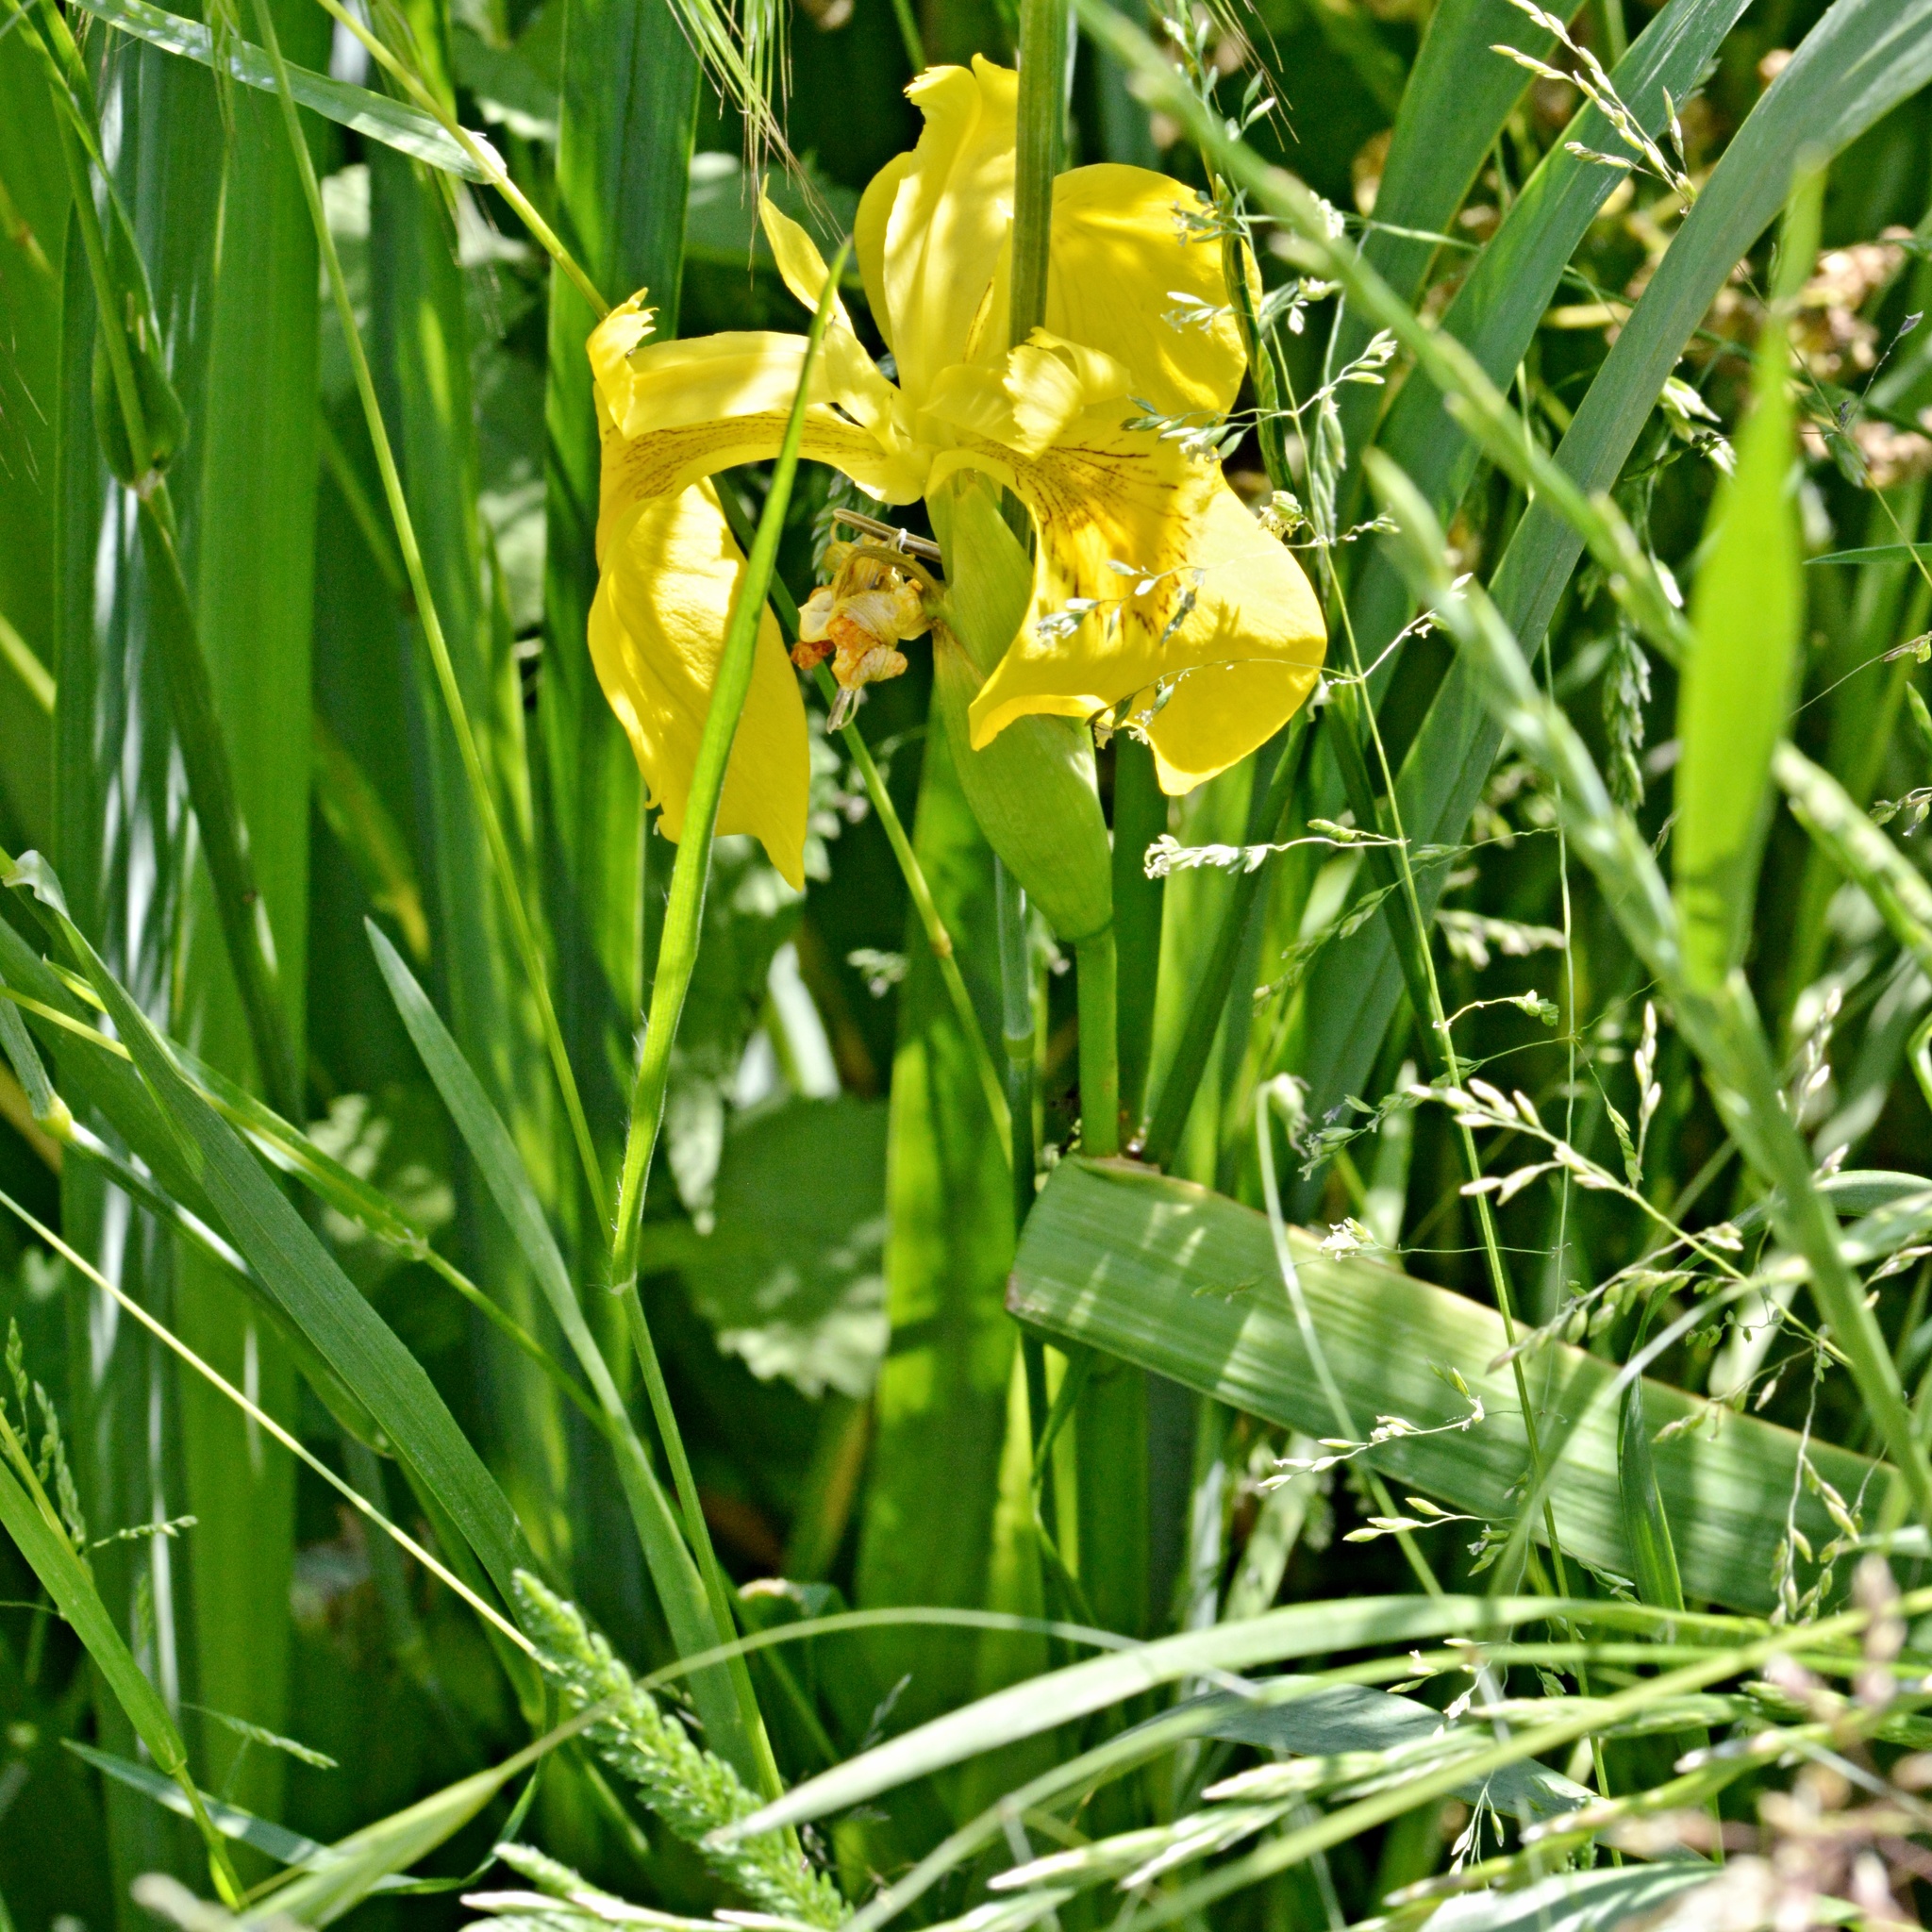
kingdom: Plantae
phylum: Tracheophyta
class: Liliopsida
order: Asparagales
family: Iridaceae
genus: Iris
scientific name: Iris pseudacorus
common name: Yellow flag
